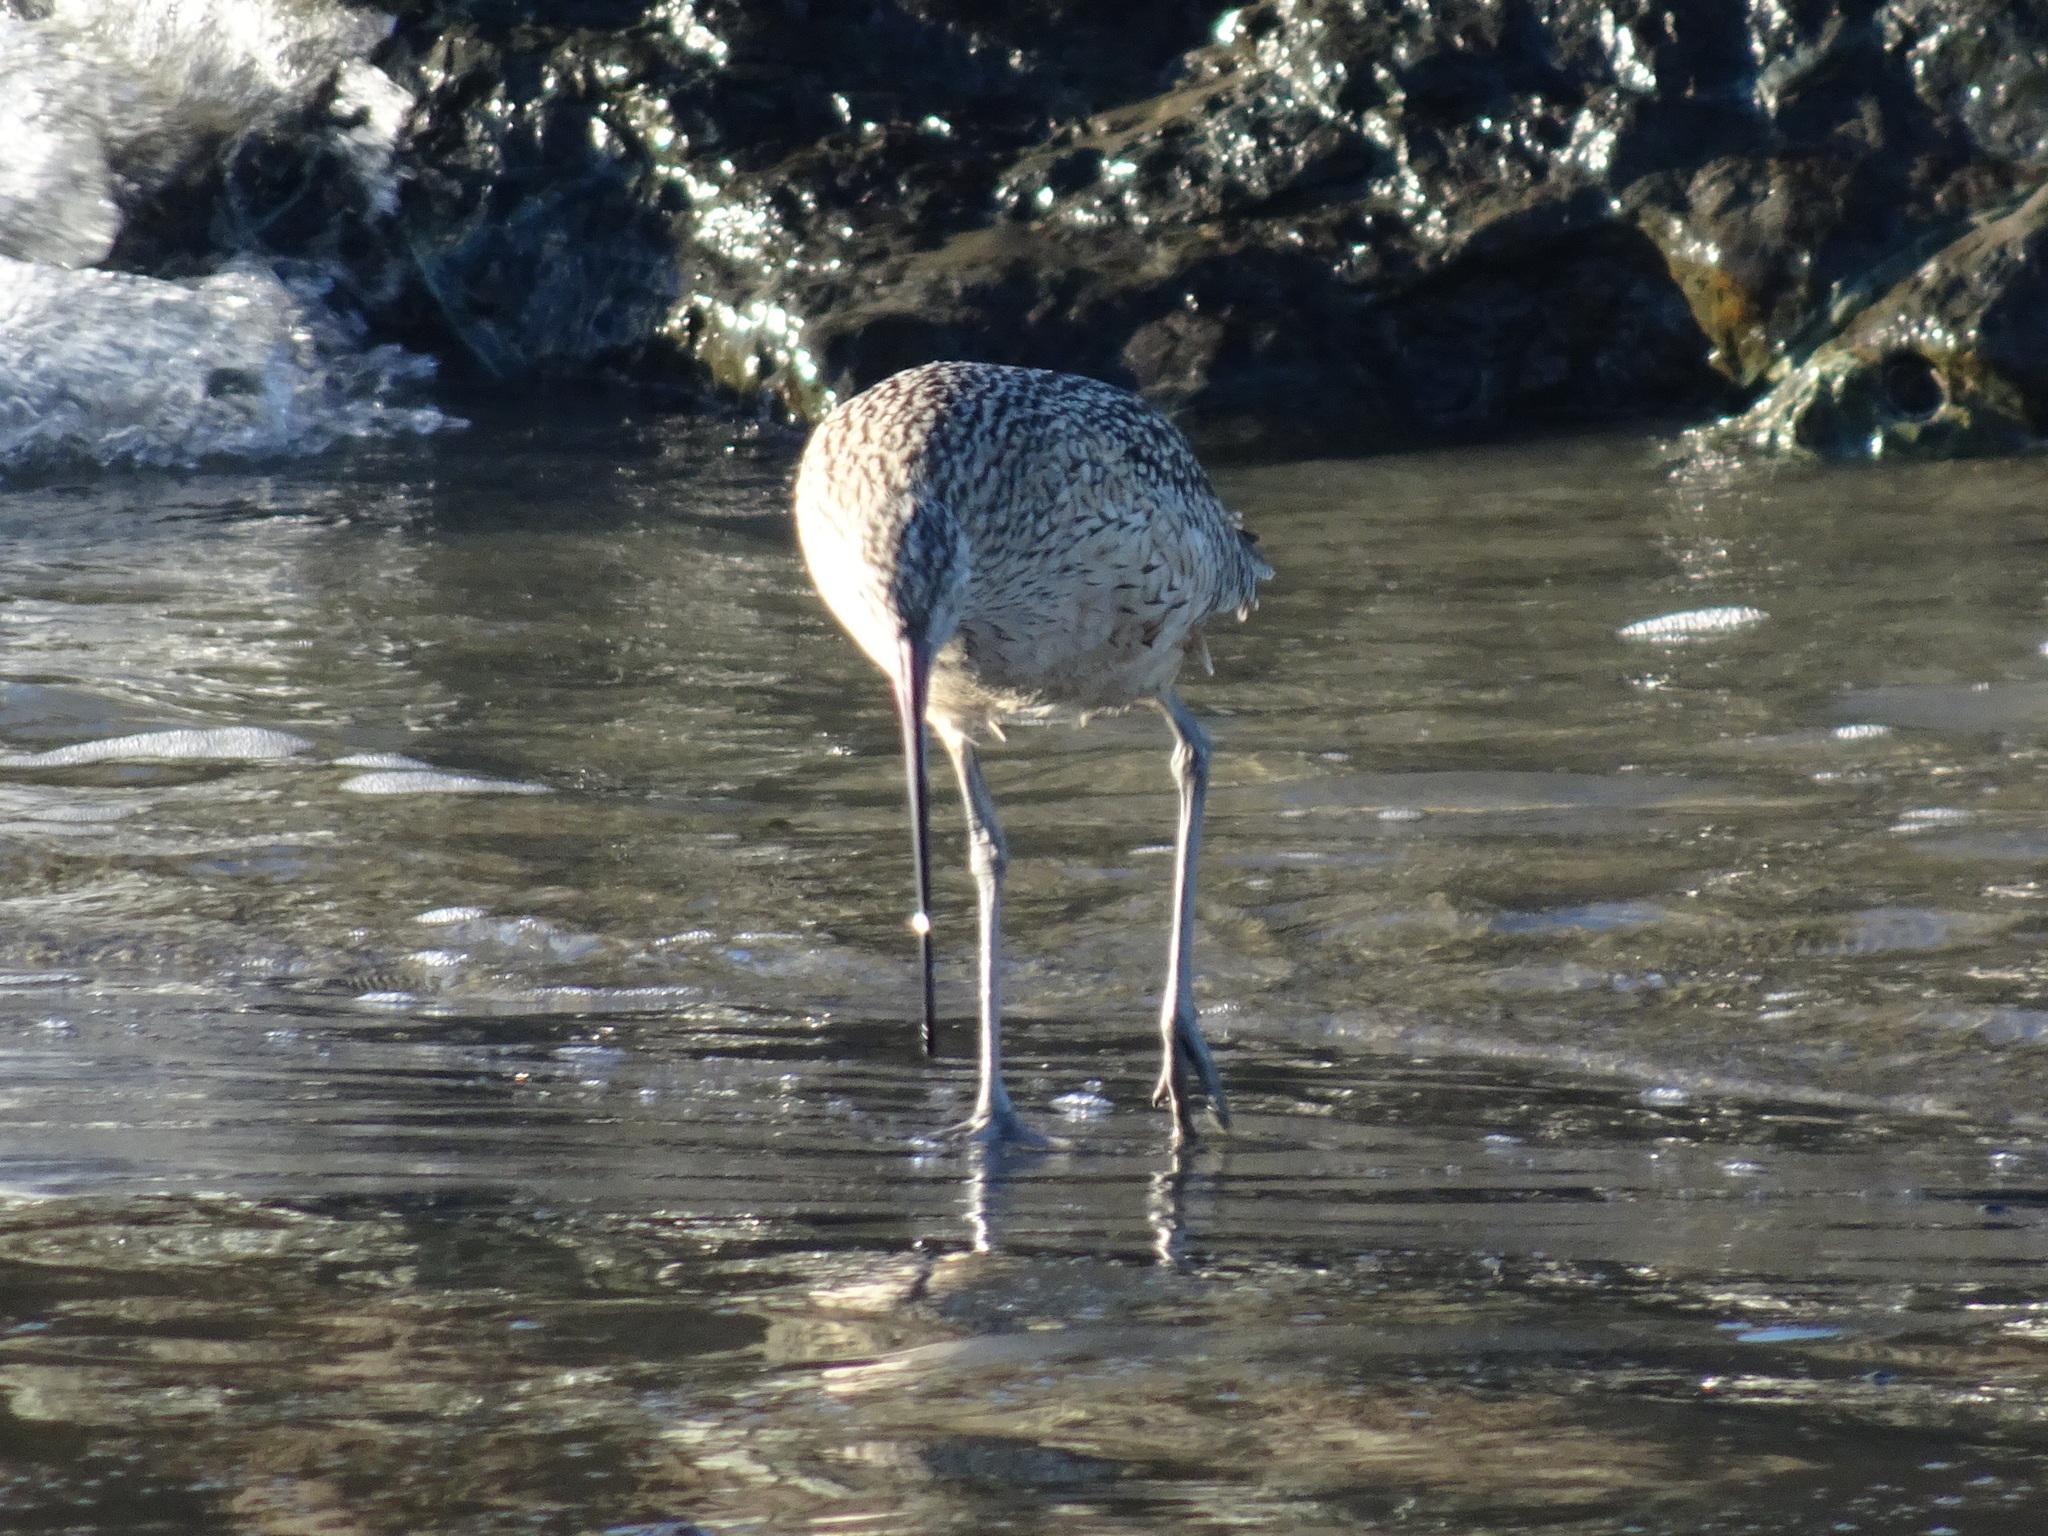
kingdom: Animalia
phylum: Chordata
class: Aves
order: Charadriiformes
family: Scolopacidae
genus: Numenius
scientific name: Numenius americanus
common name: Long-billed curlew
